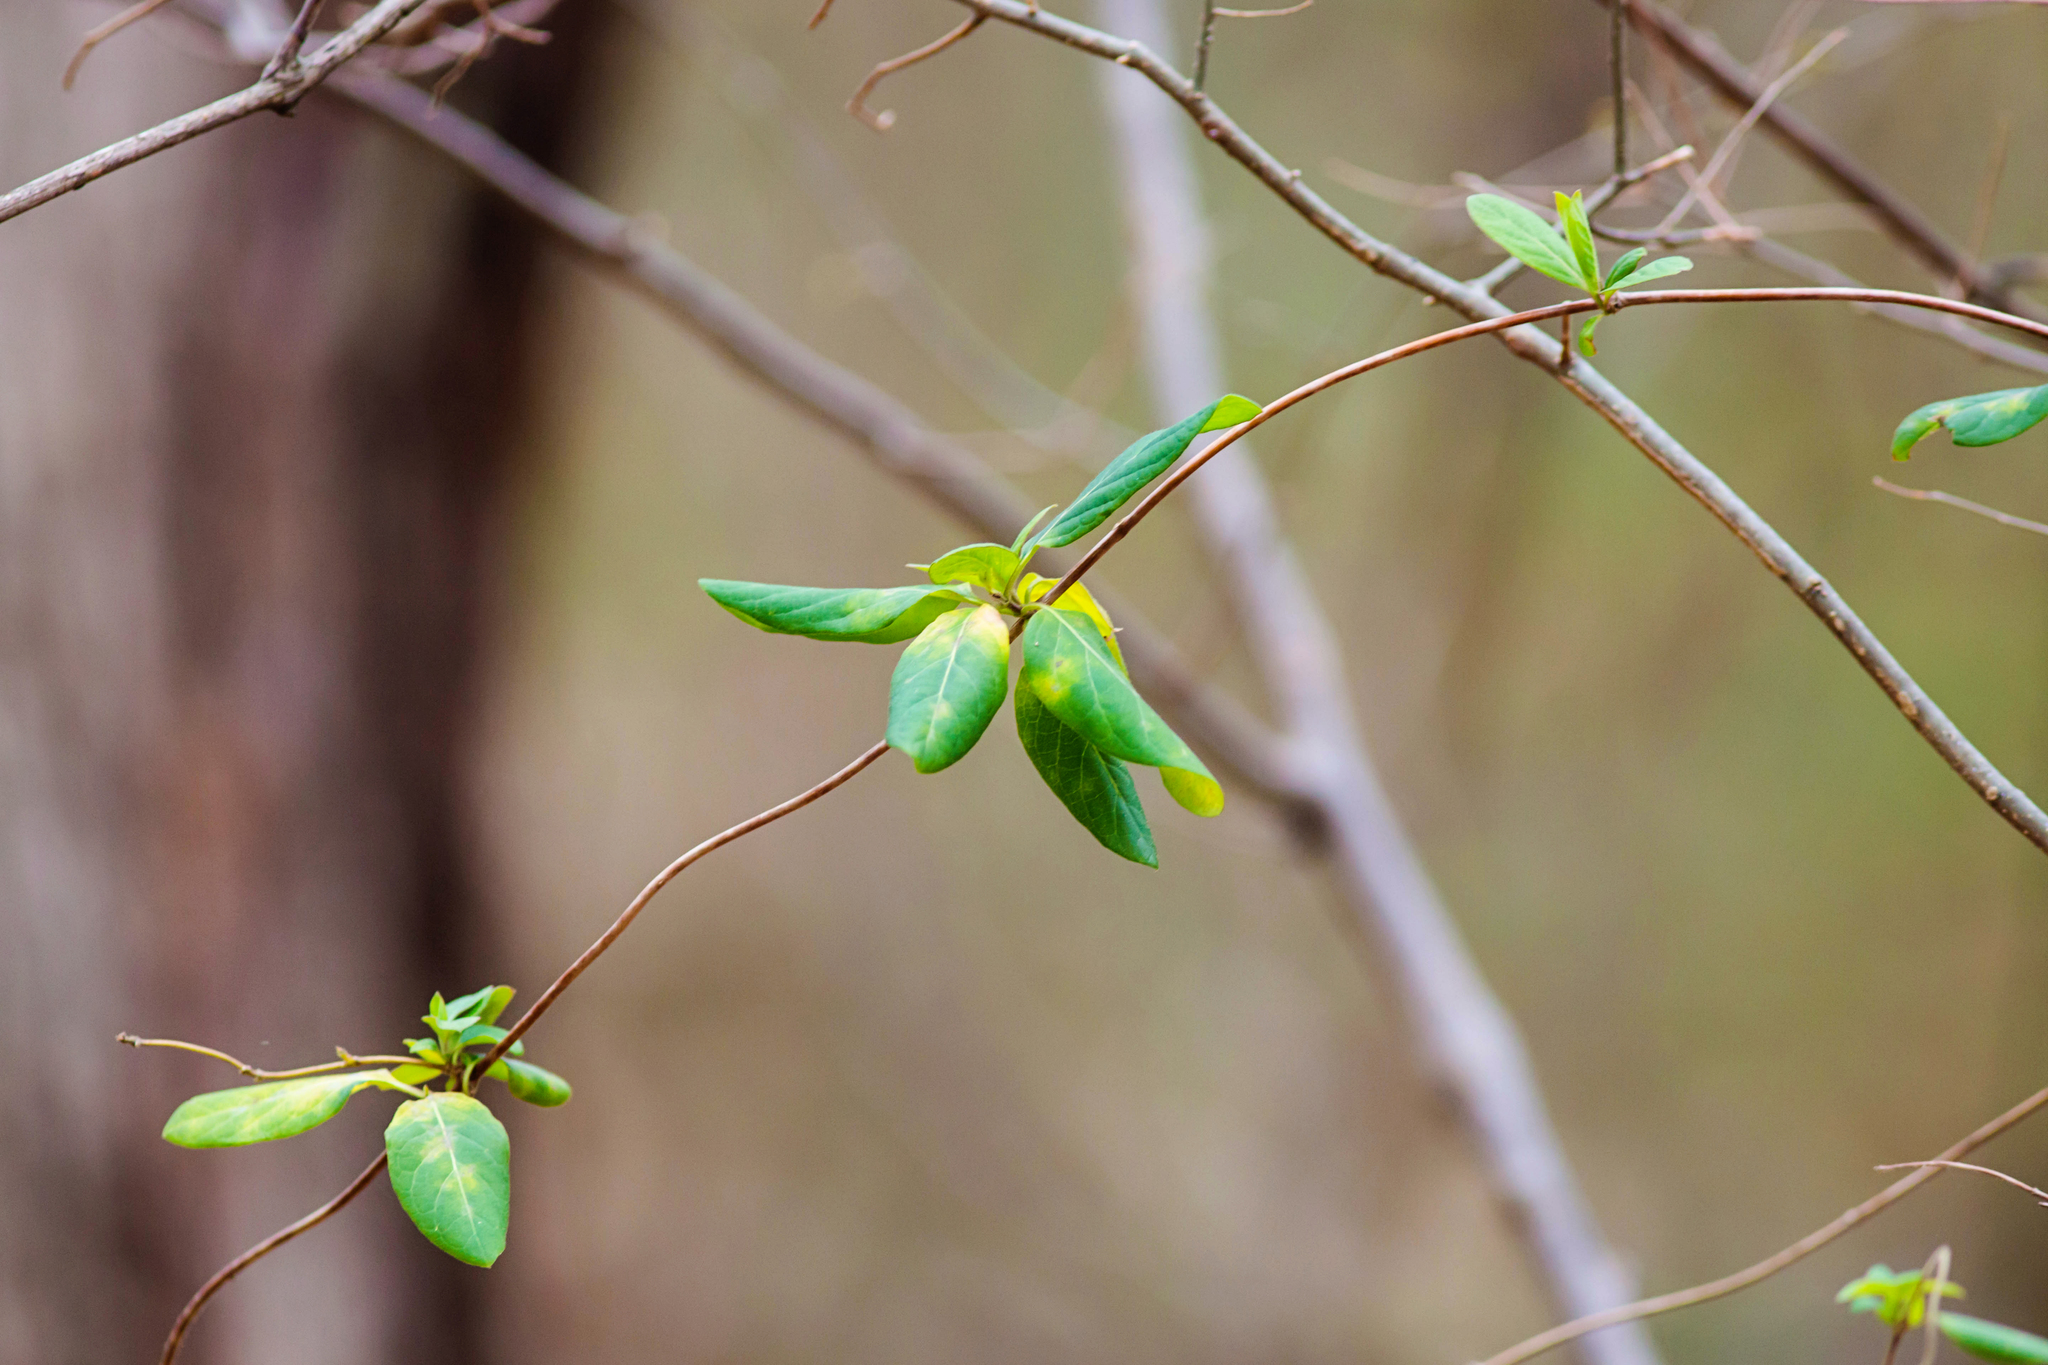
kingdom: Plantae
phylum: Tracheophyta
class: Magnoliopsida
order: Dipsacales
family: Caprifoliaceae
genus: Lonicera
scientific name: Lonicera japonica
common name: Japanese honeysuckle
